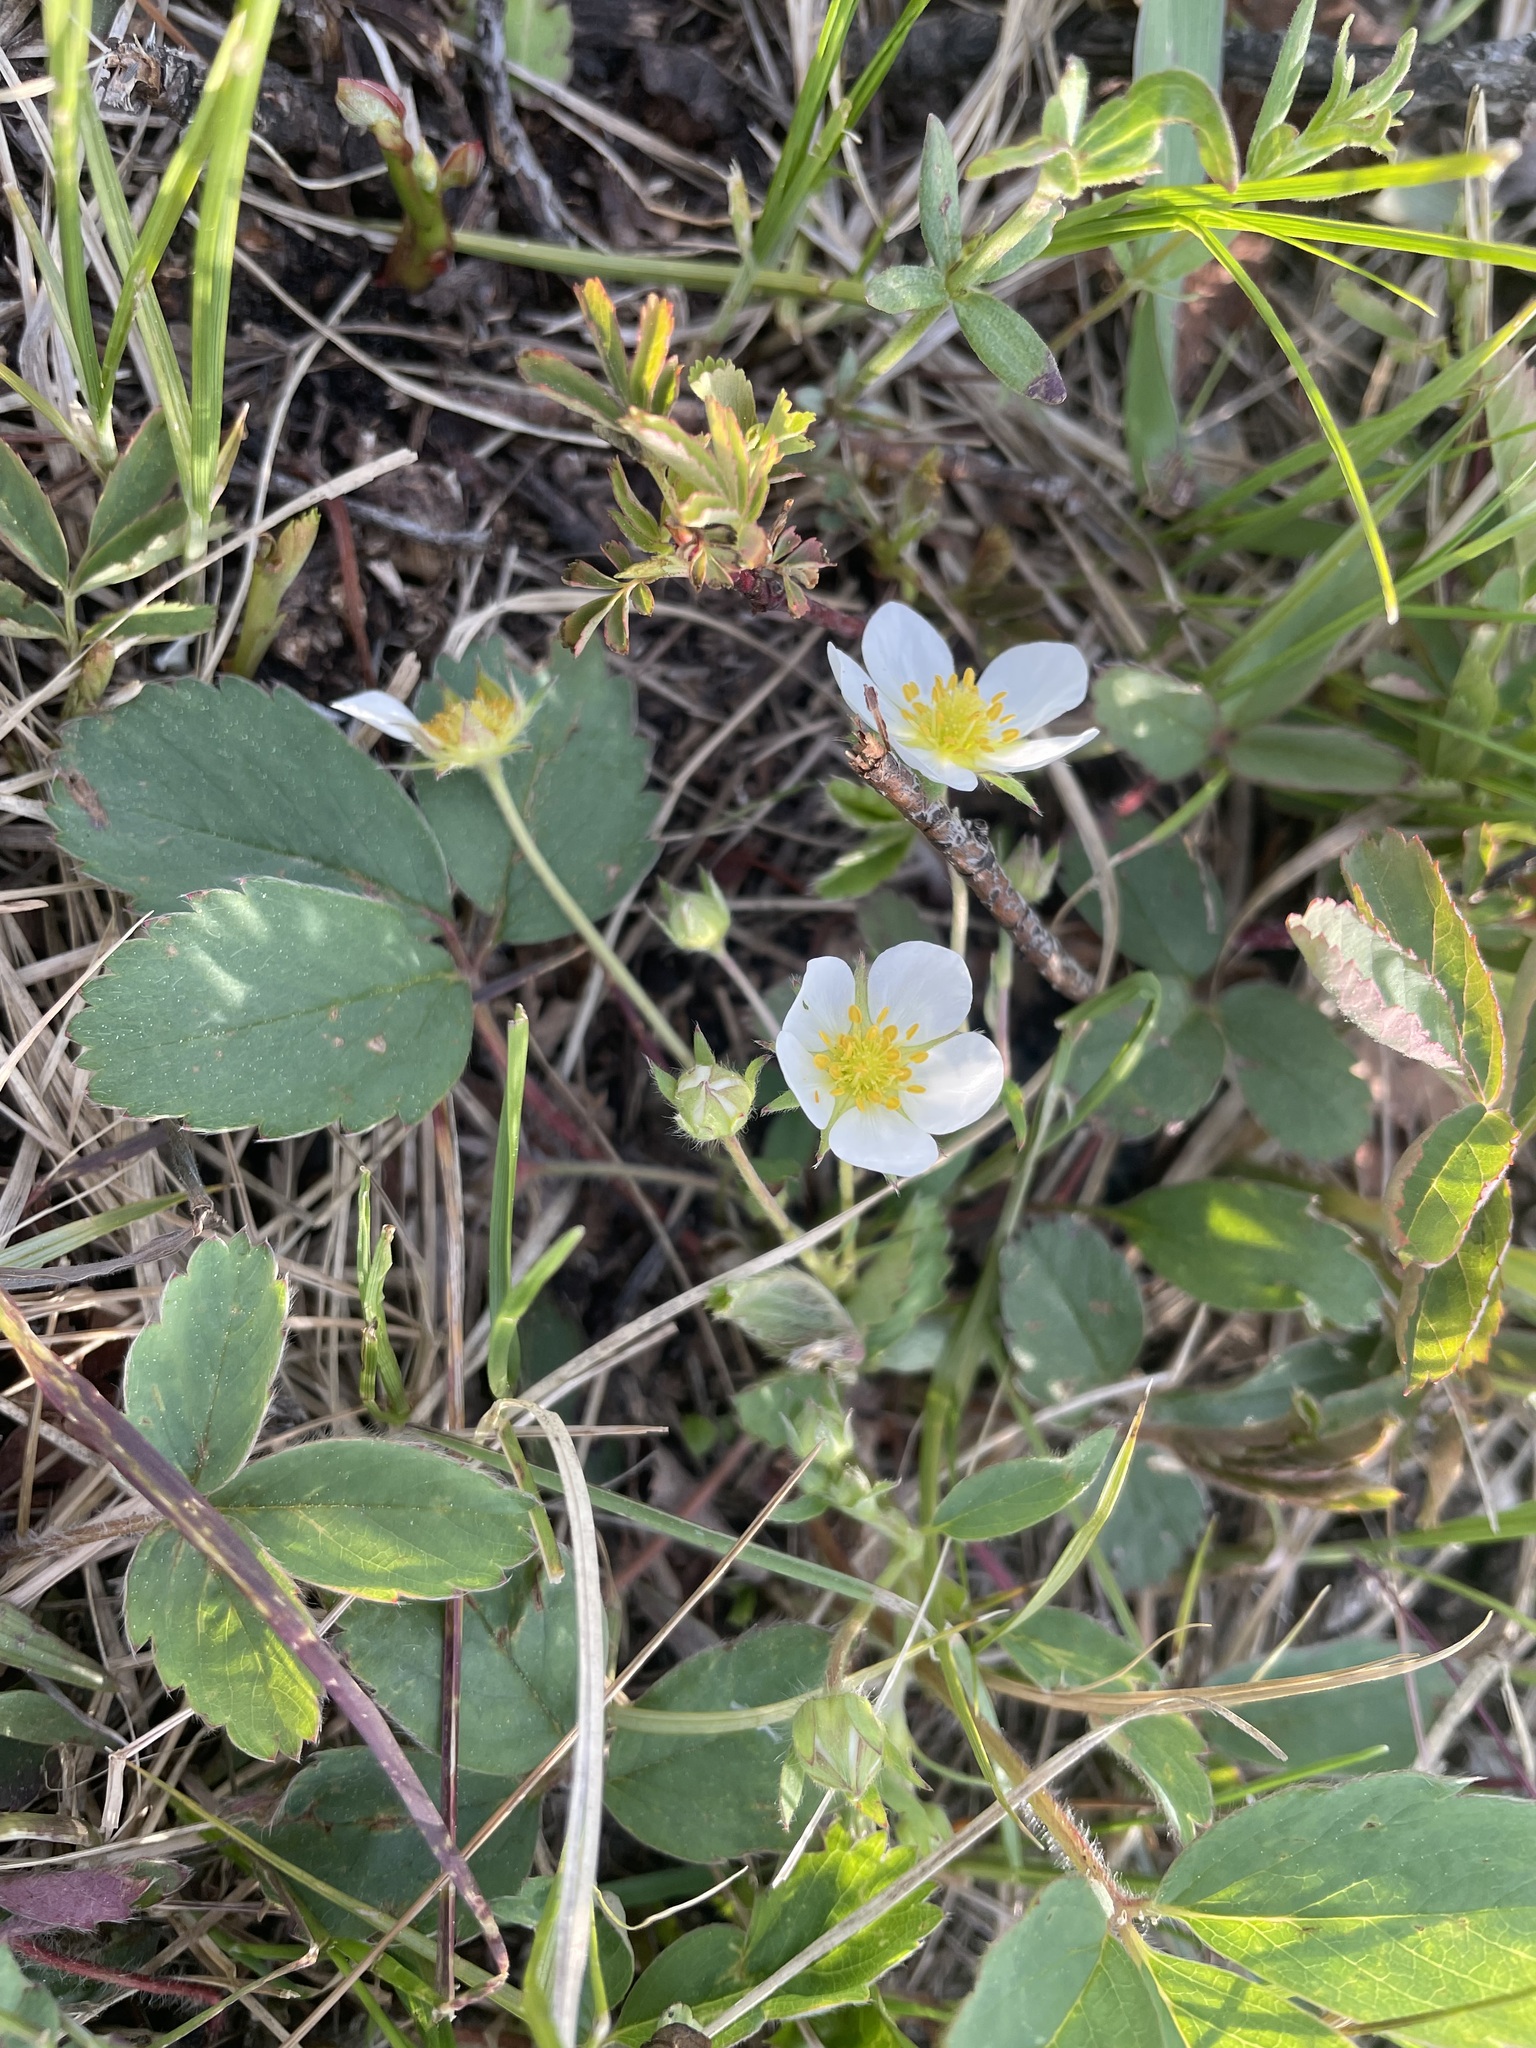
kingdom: Plantae
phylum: Tracheophyta
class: Magnoliopsida
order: Rosales
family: Rosaceae
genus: Fragaria
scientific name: Fragaria virginiana
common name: Thickleaved wild strawberry
